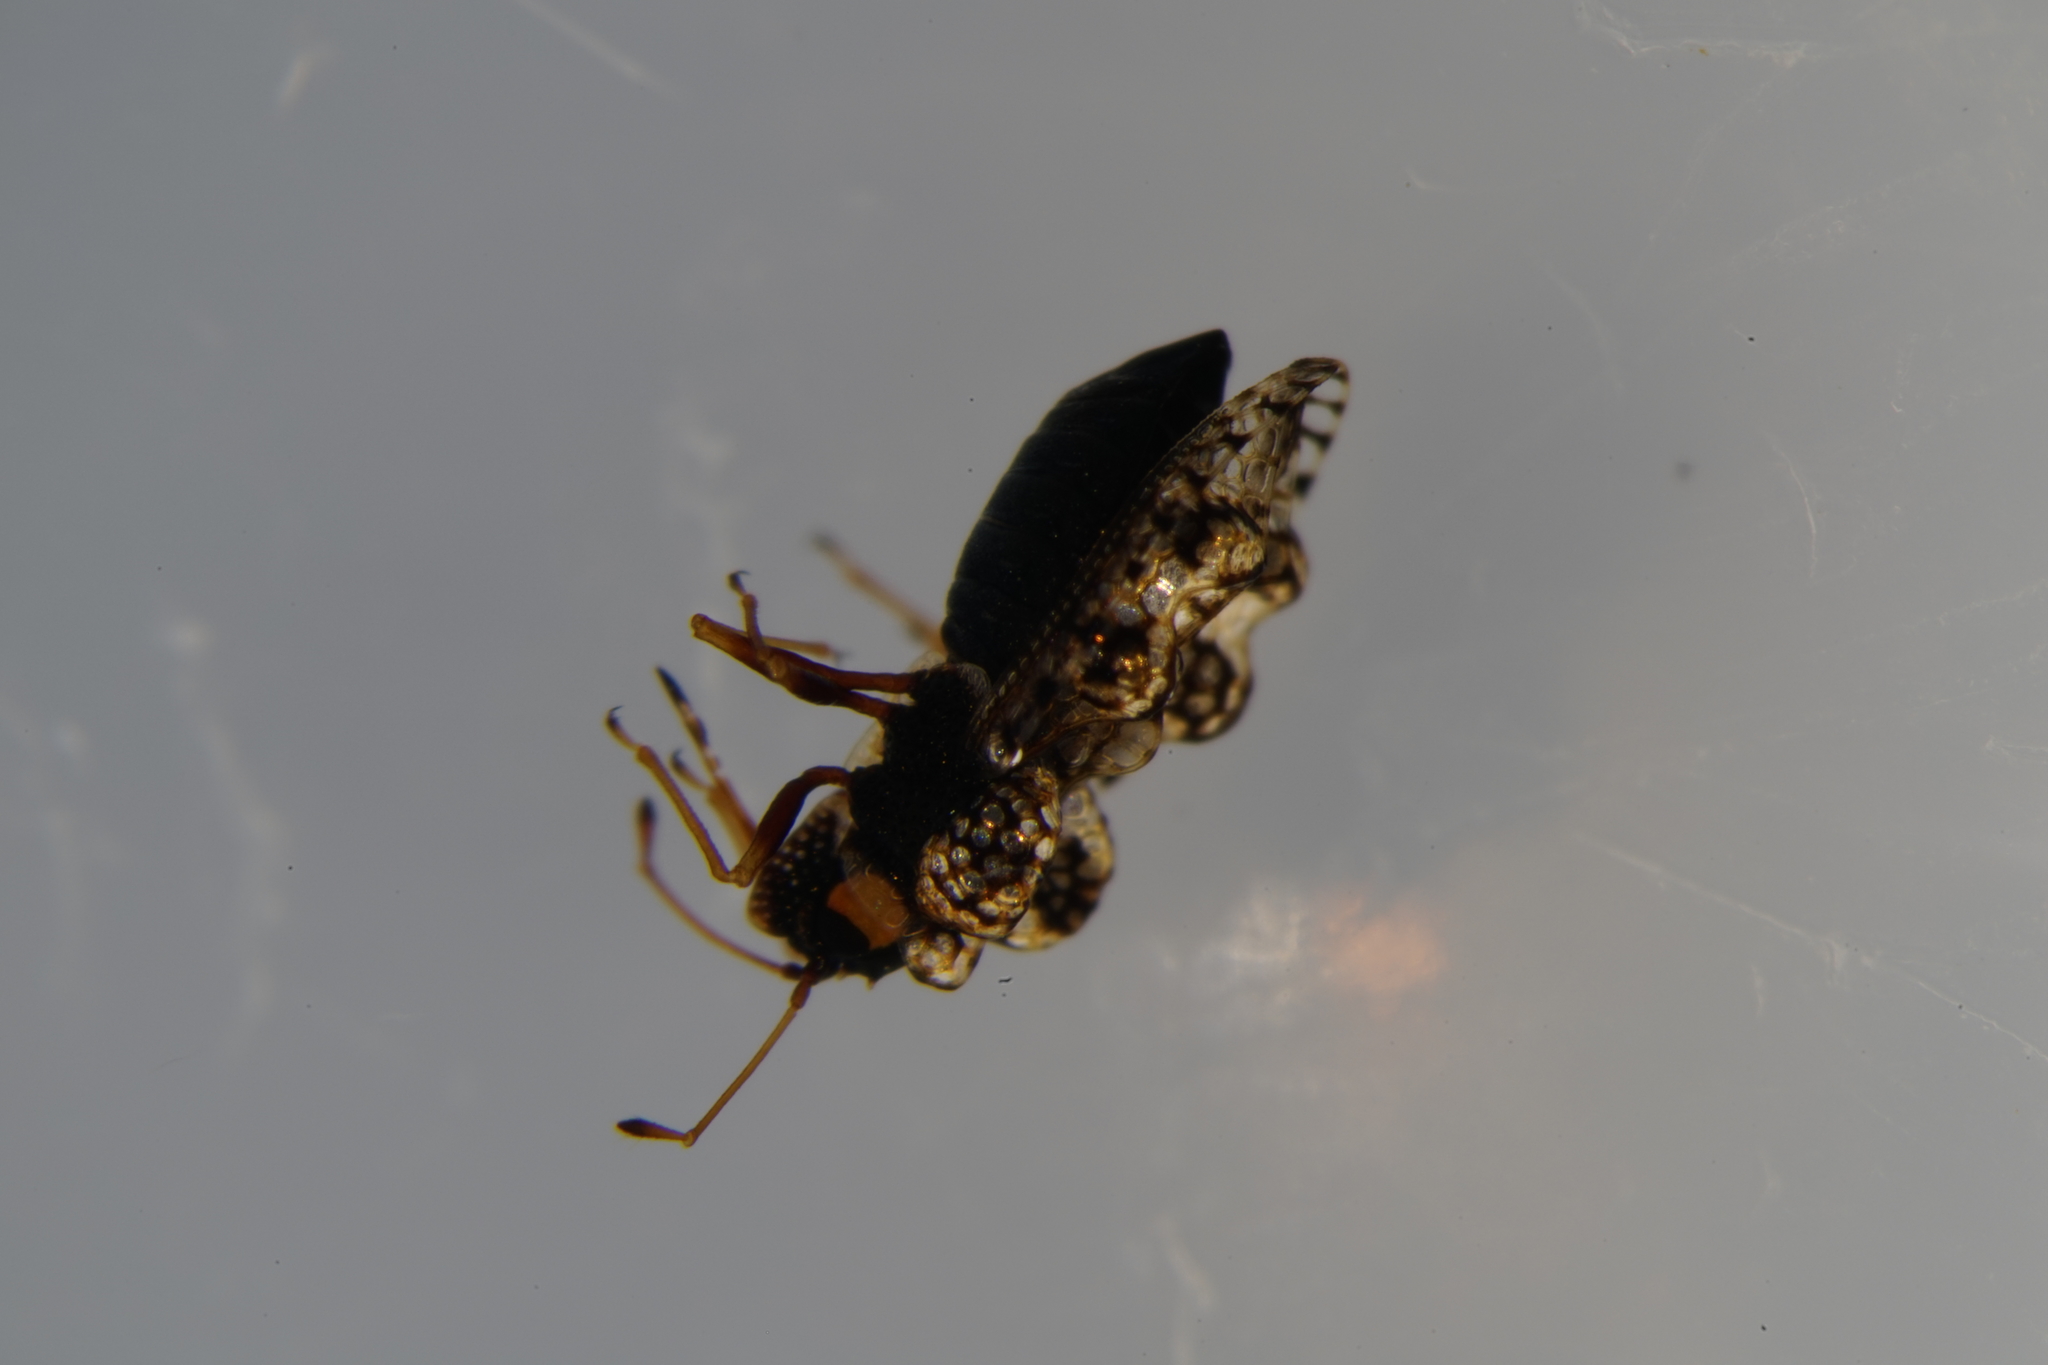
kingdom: Animalia
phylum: Arthropoda
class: Insecta
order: Hemiptera
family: Tingidae
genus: Dictyla
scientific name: Dictyla rotundata
